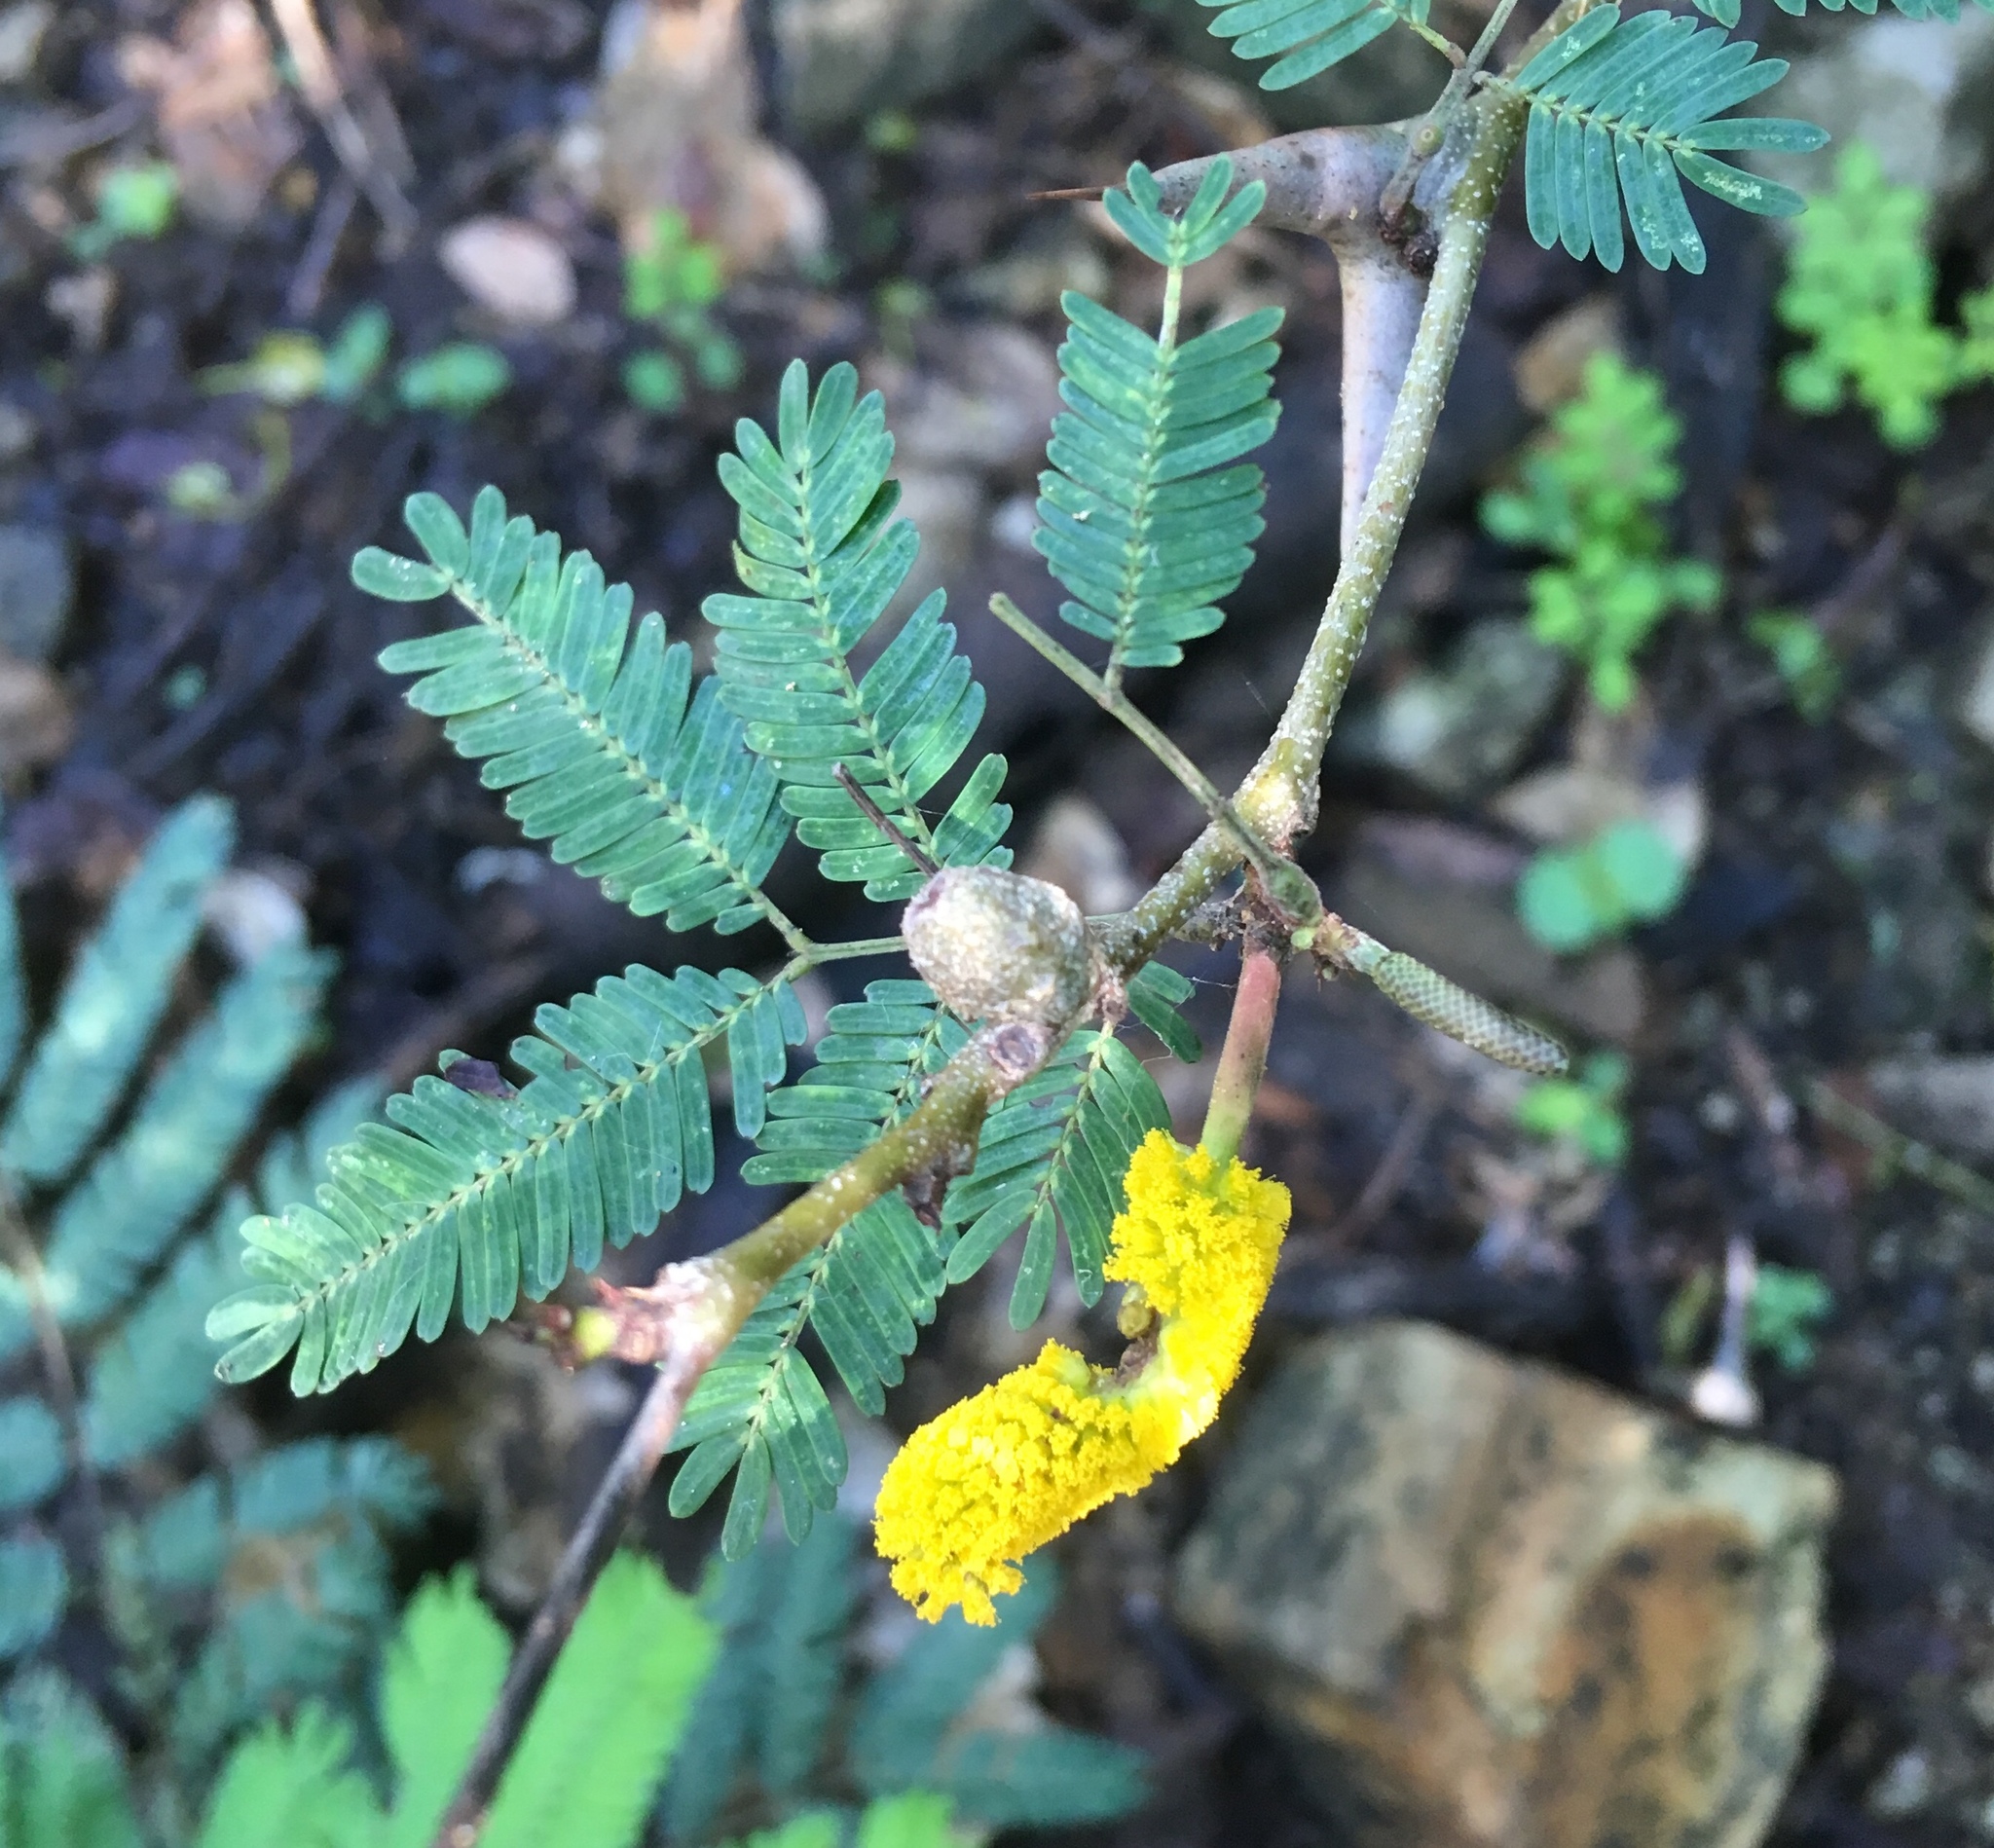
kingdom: Plantae
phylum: Tracheophyta
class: Magnoliopsida
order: Fabales
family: Fabaceae
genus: Vachellia
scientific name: Vachellia collinsii
